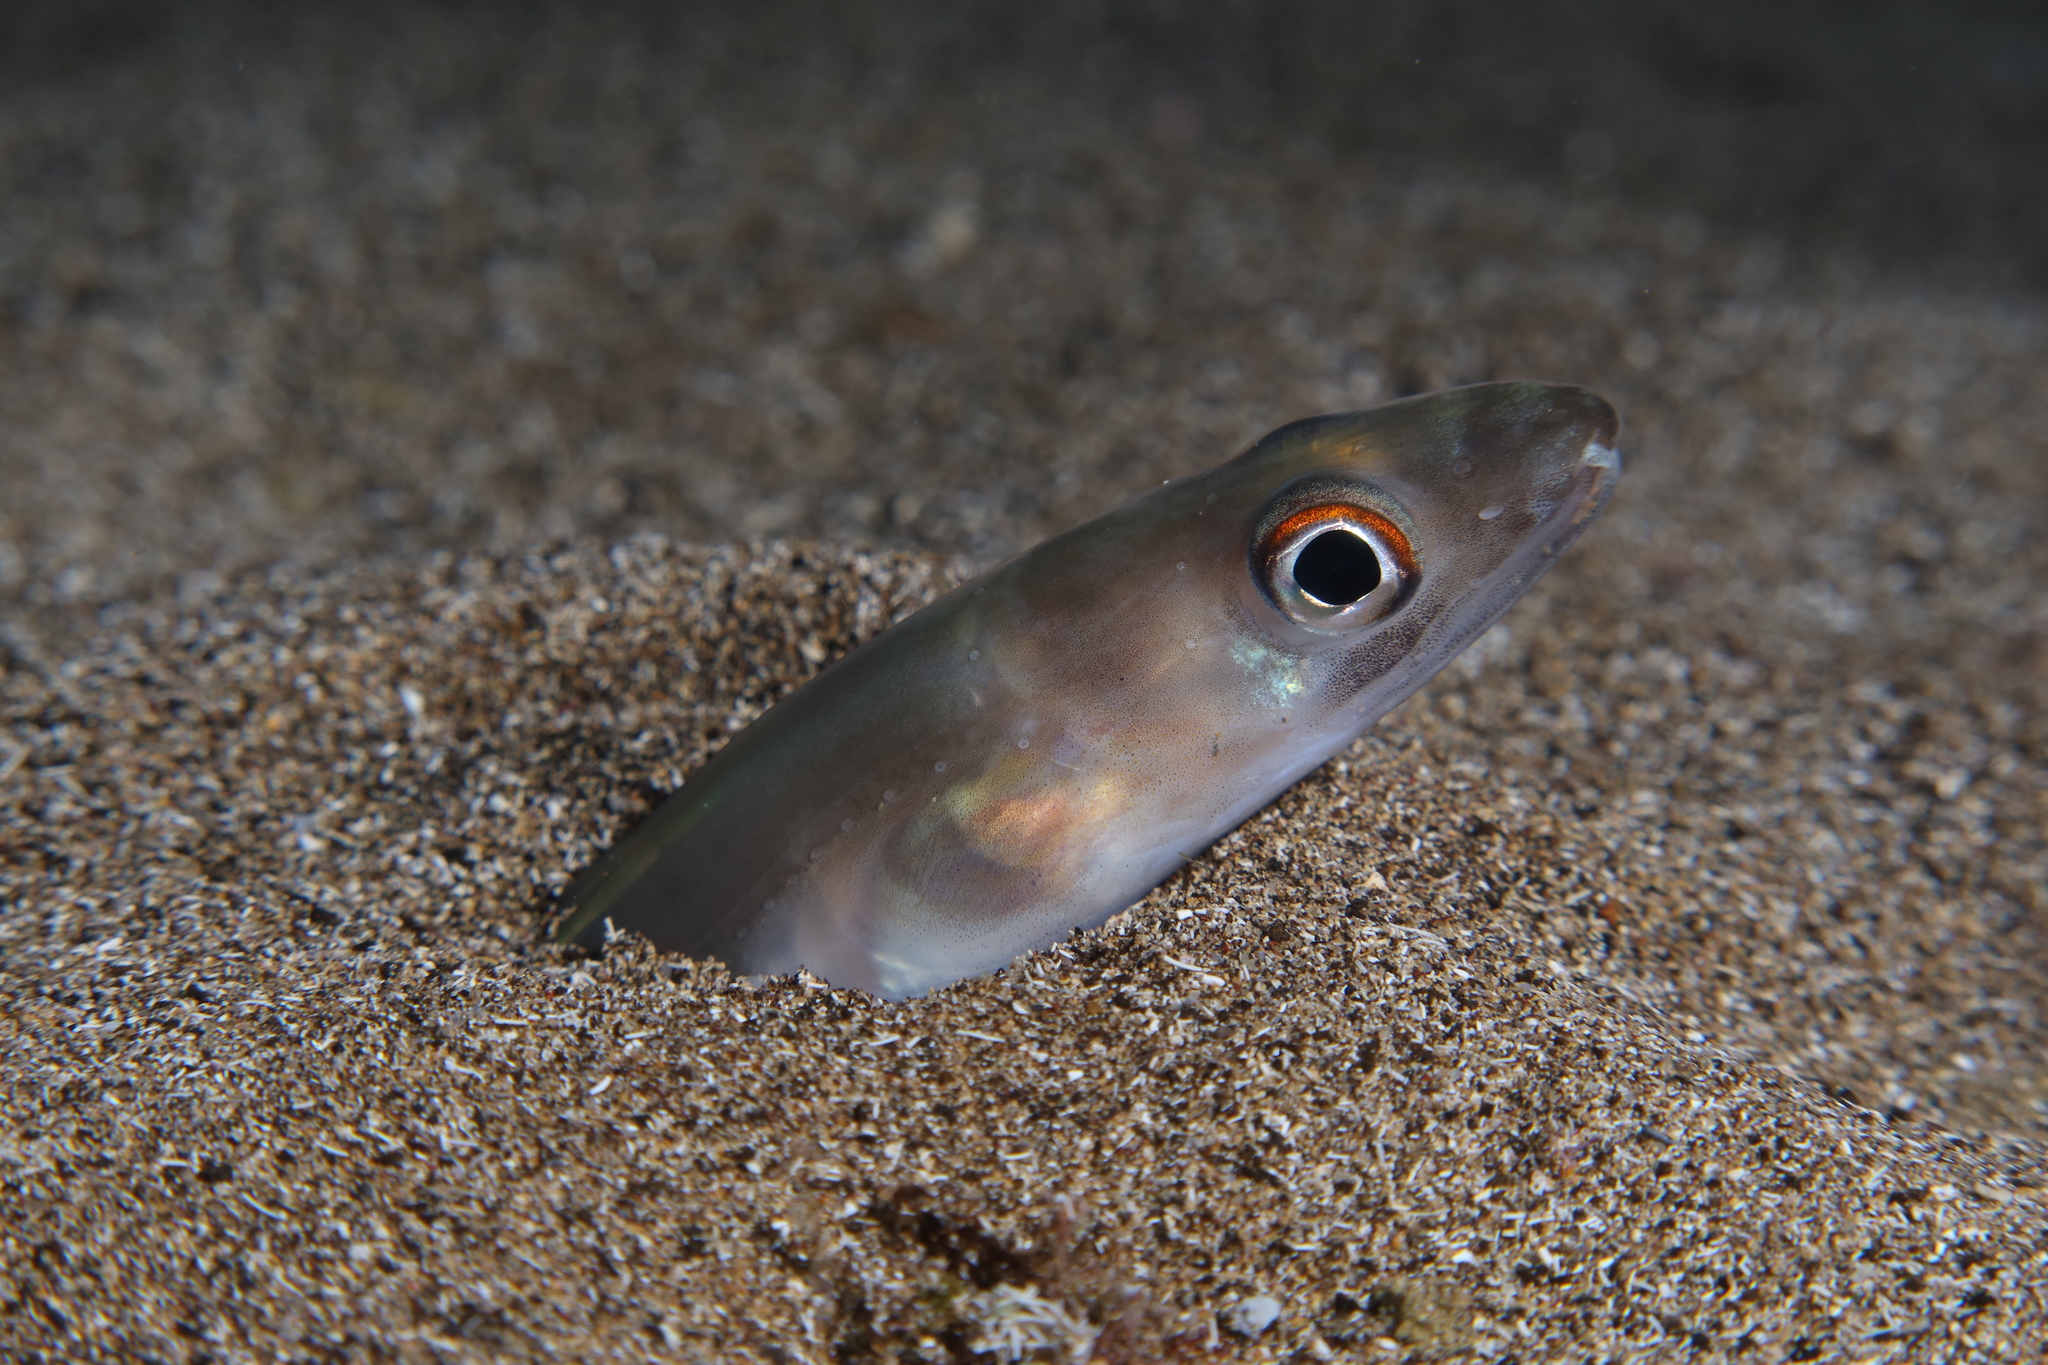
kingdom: Animalia
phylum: Chordata
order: Anguilliformes
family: Congridae
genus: Ariosoma
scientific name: Ariosoma balearicum
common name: Bandtooth conger
